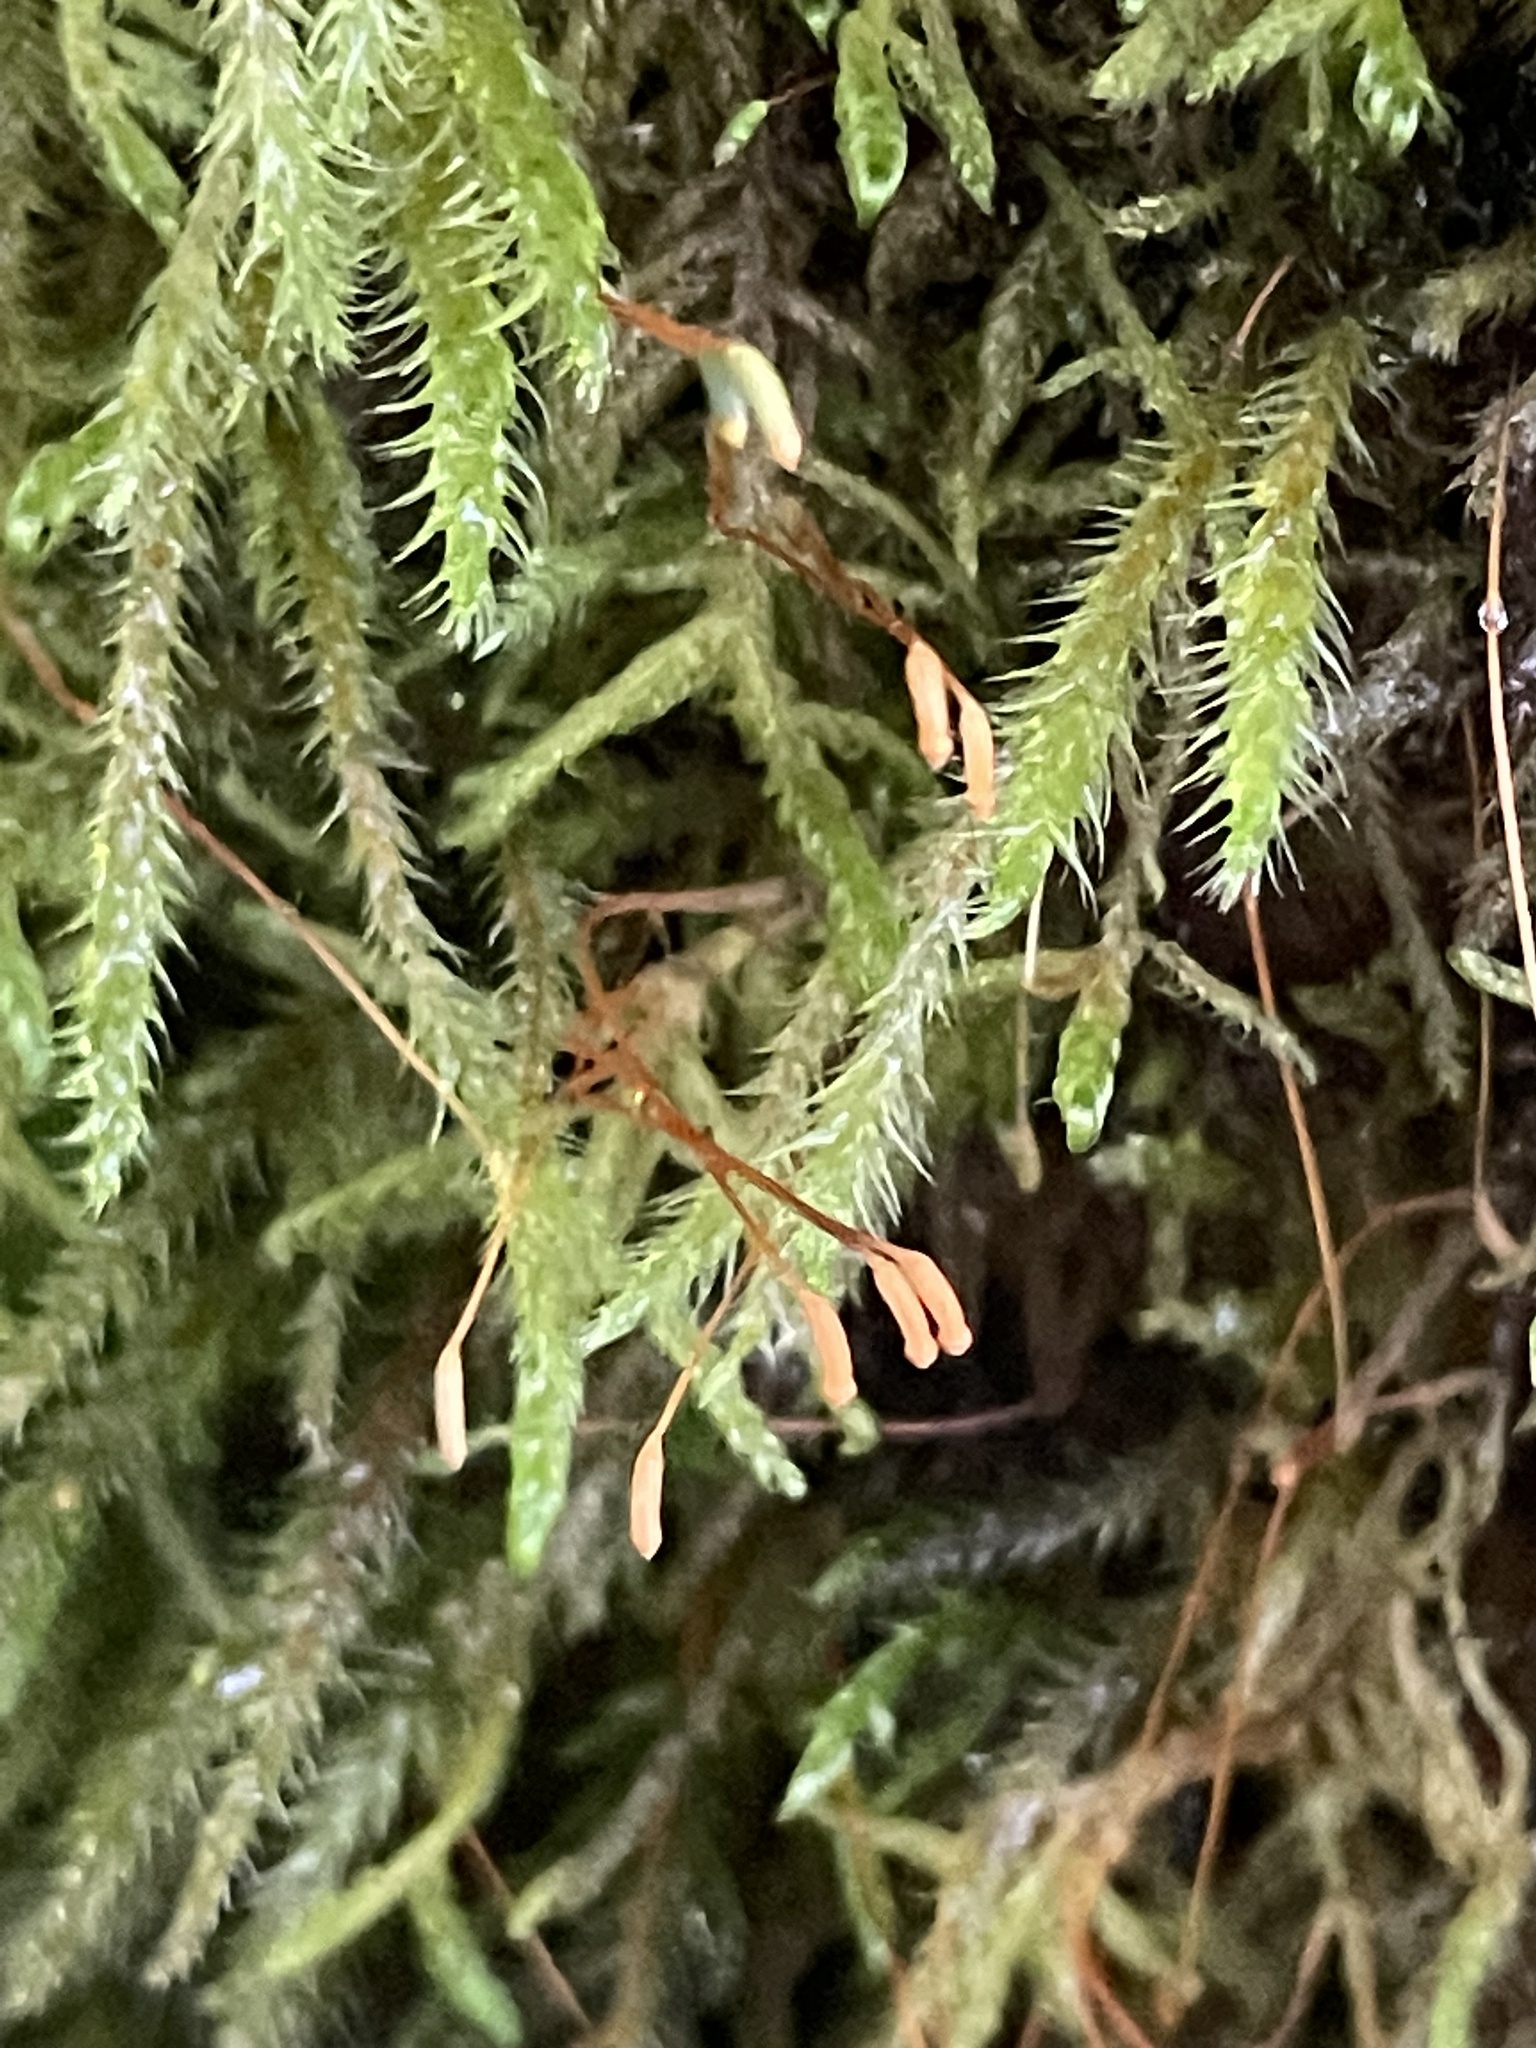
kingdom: Plantae
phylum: Bryophyta
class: Bryopsida
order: Hypnales
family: Hylocomiaceae
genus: Rhytidiadelphus
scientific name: Rhytidiadelphus loreus
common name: Lanky moss
